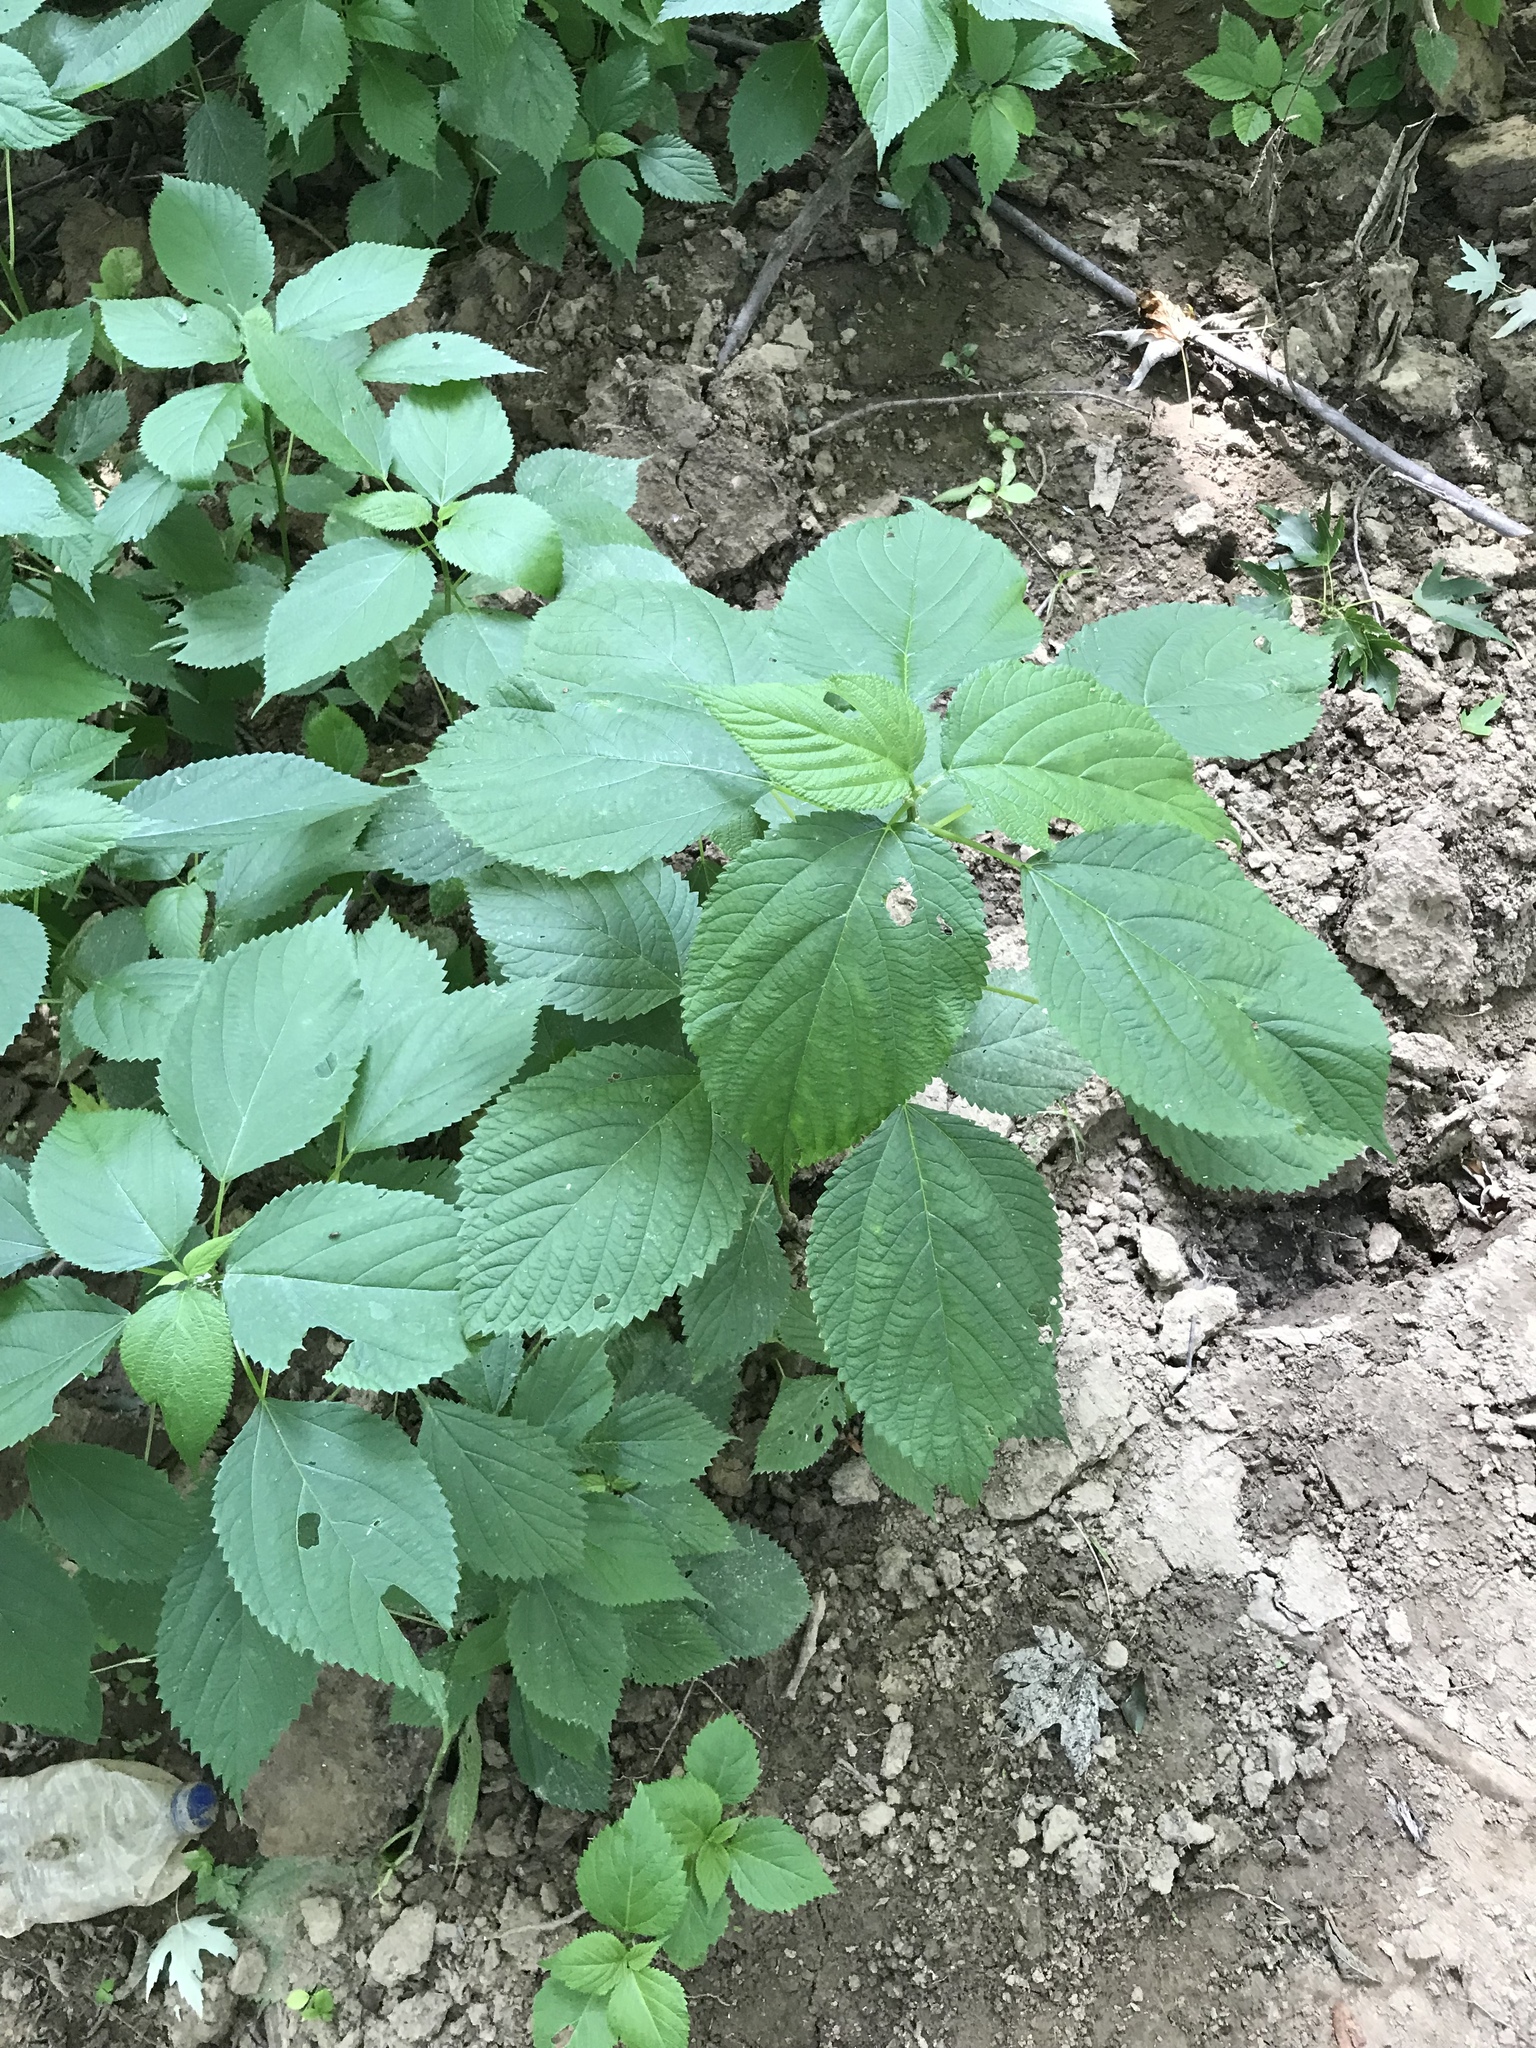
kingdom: Plantae
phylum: Tracheophyta
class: Magnoliopsida
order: Rosales
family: Urticaceae
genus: Laportea
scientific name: Laportea canadensis
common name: Canada nettle
